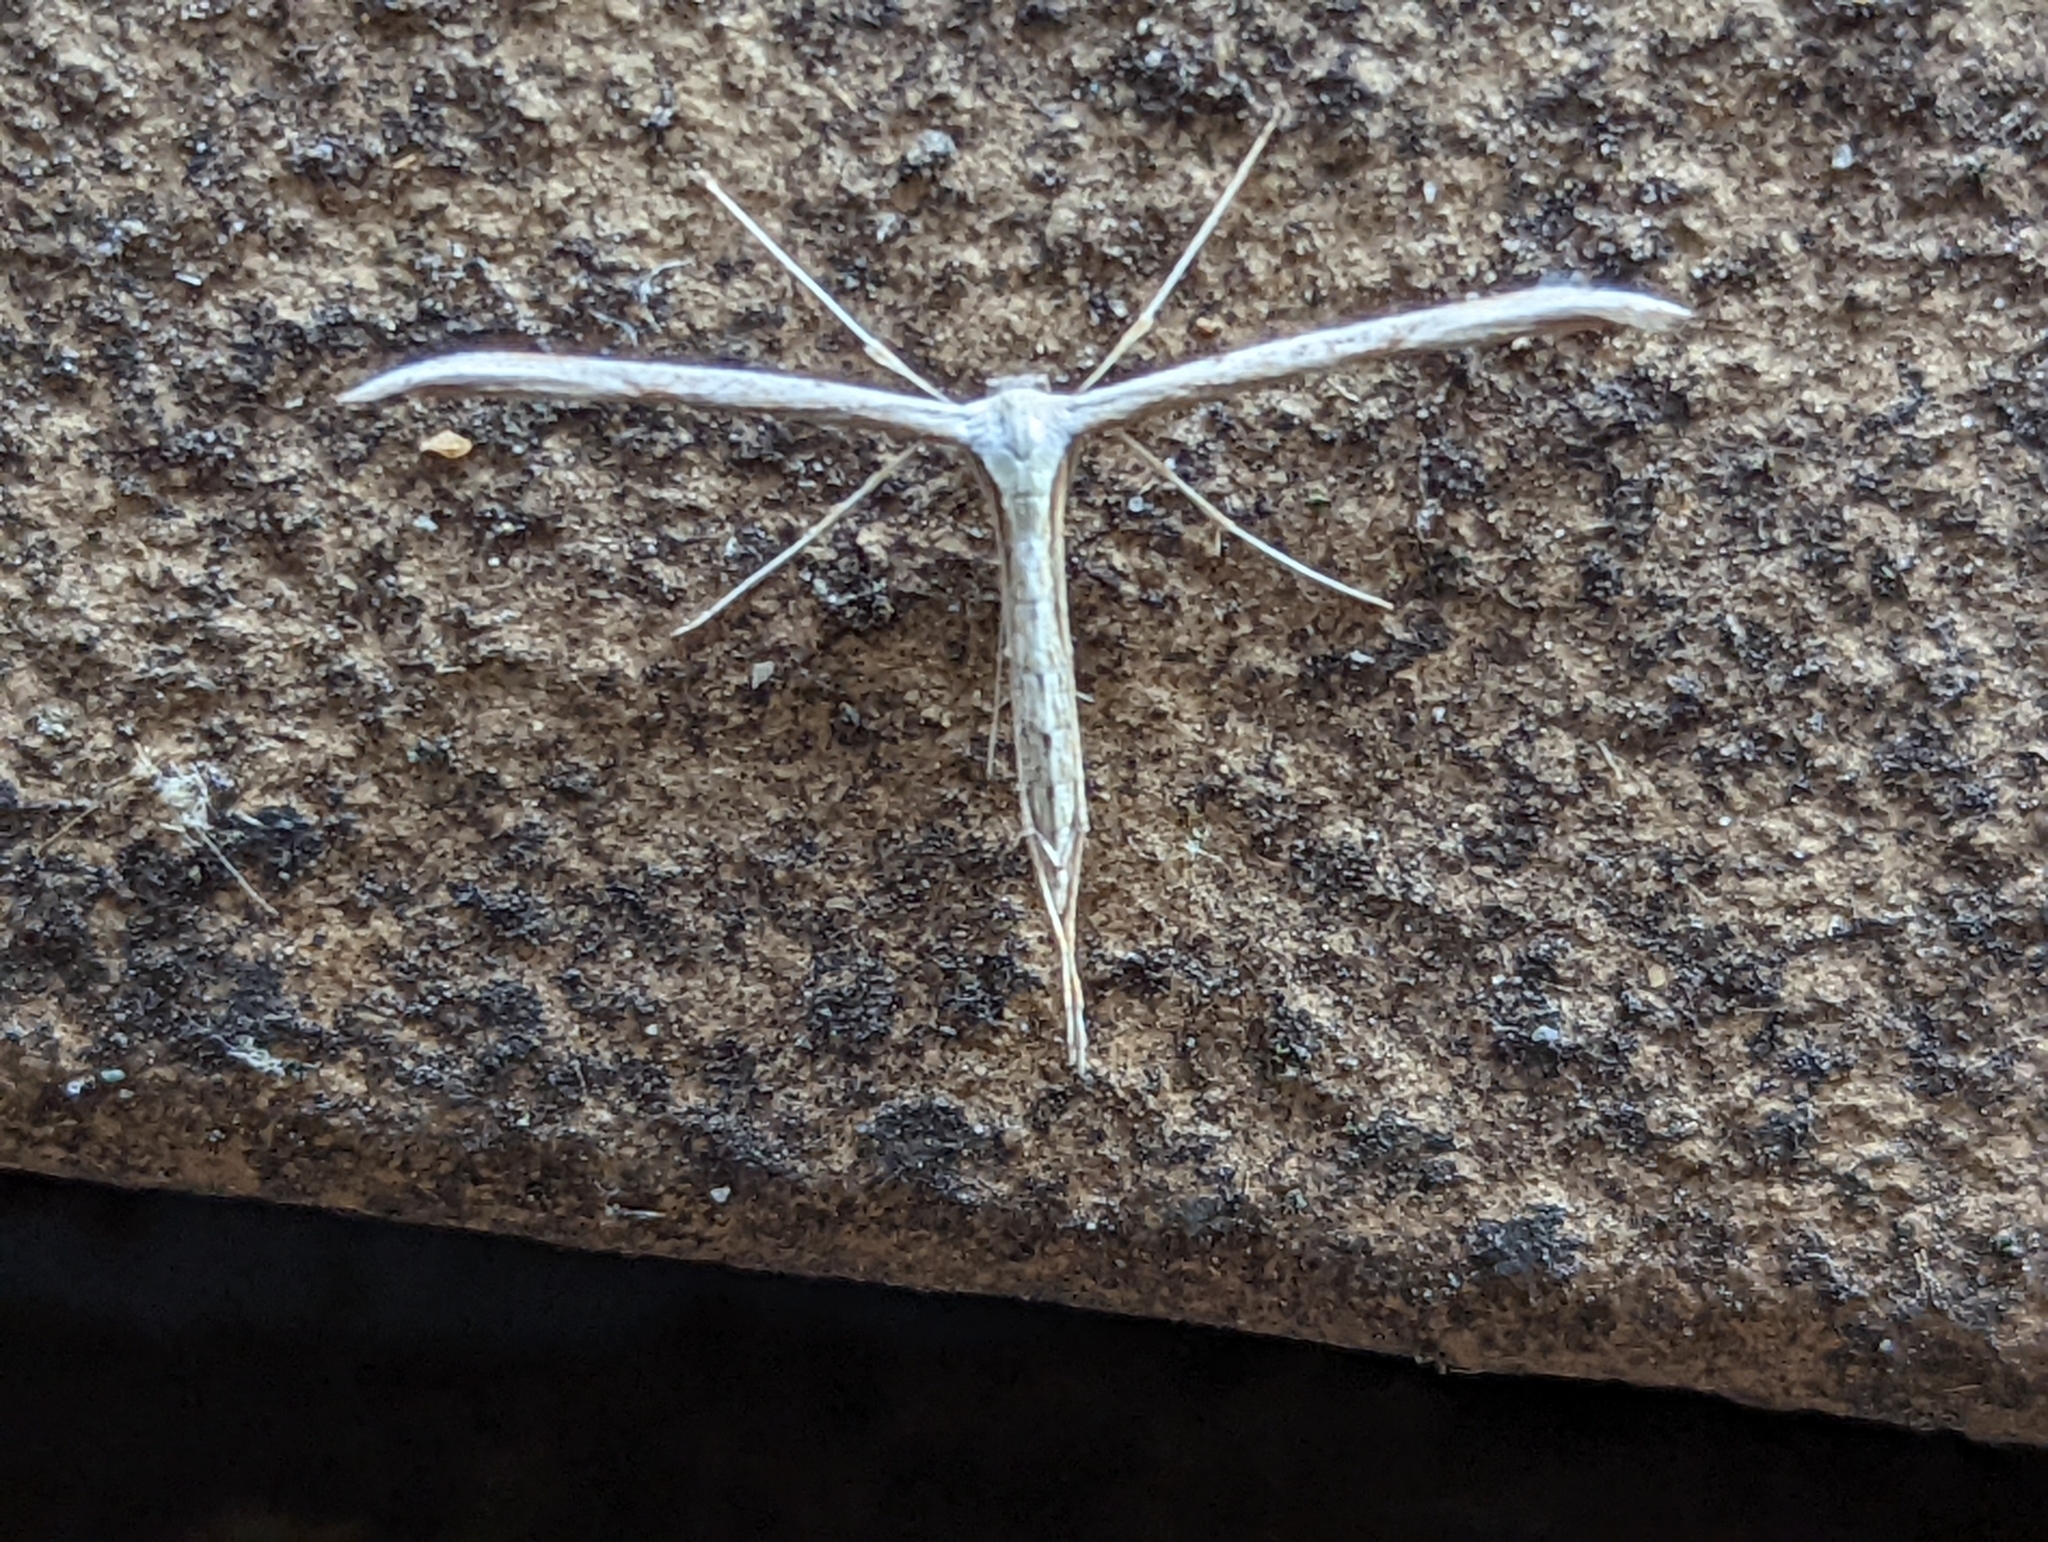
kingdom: Animalia
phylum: Arthropoda
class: Insecta
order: Lepidoptera
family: Pterophoridae
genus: Emmelina
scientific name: Emmelina monodactyla
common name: Common plume
